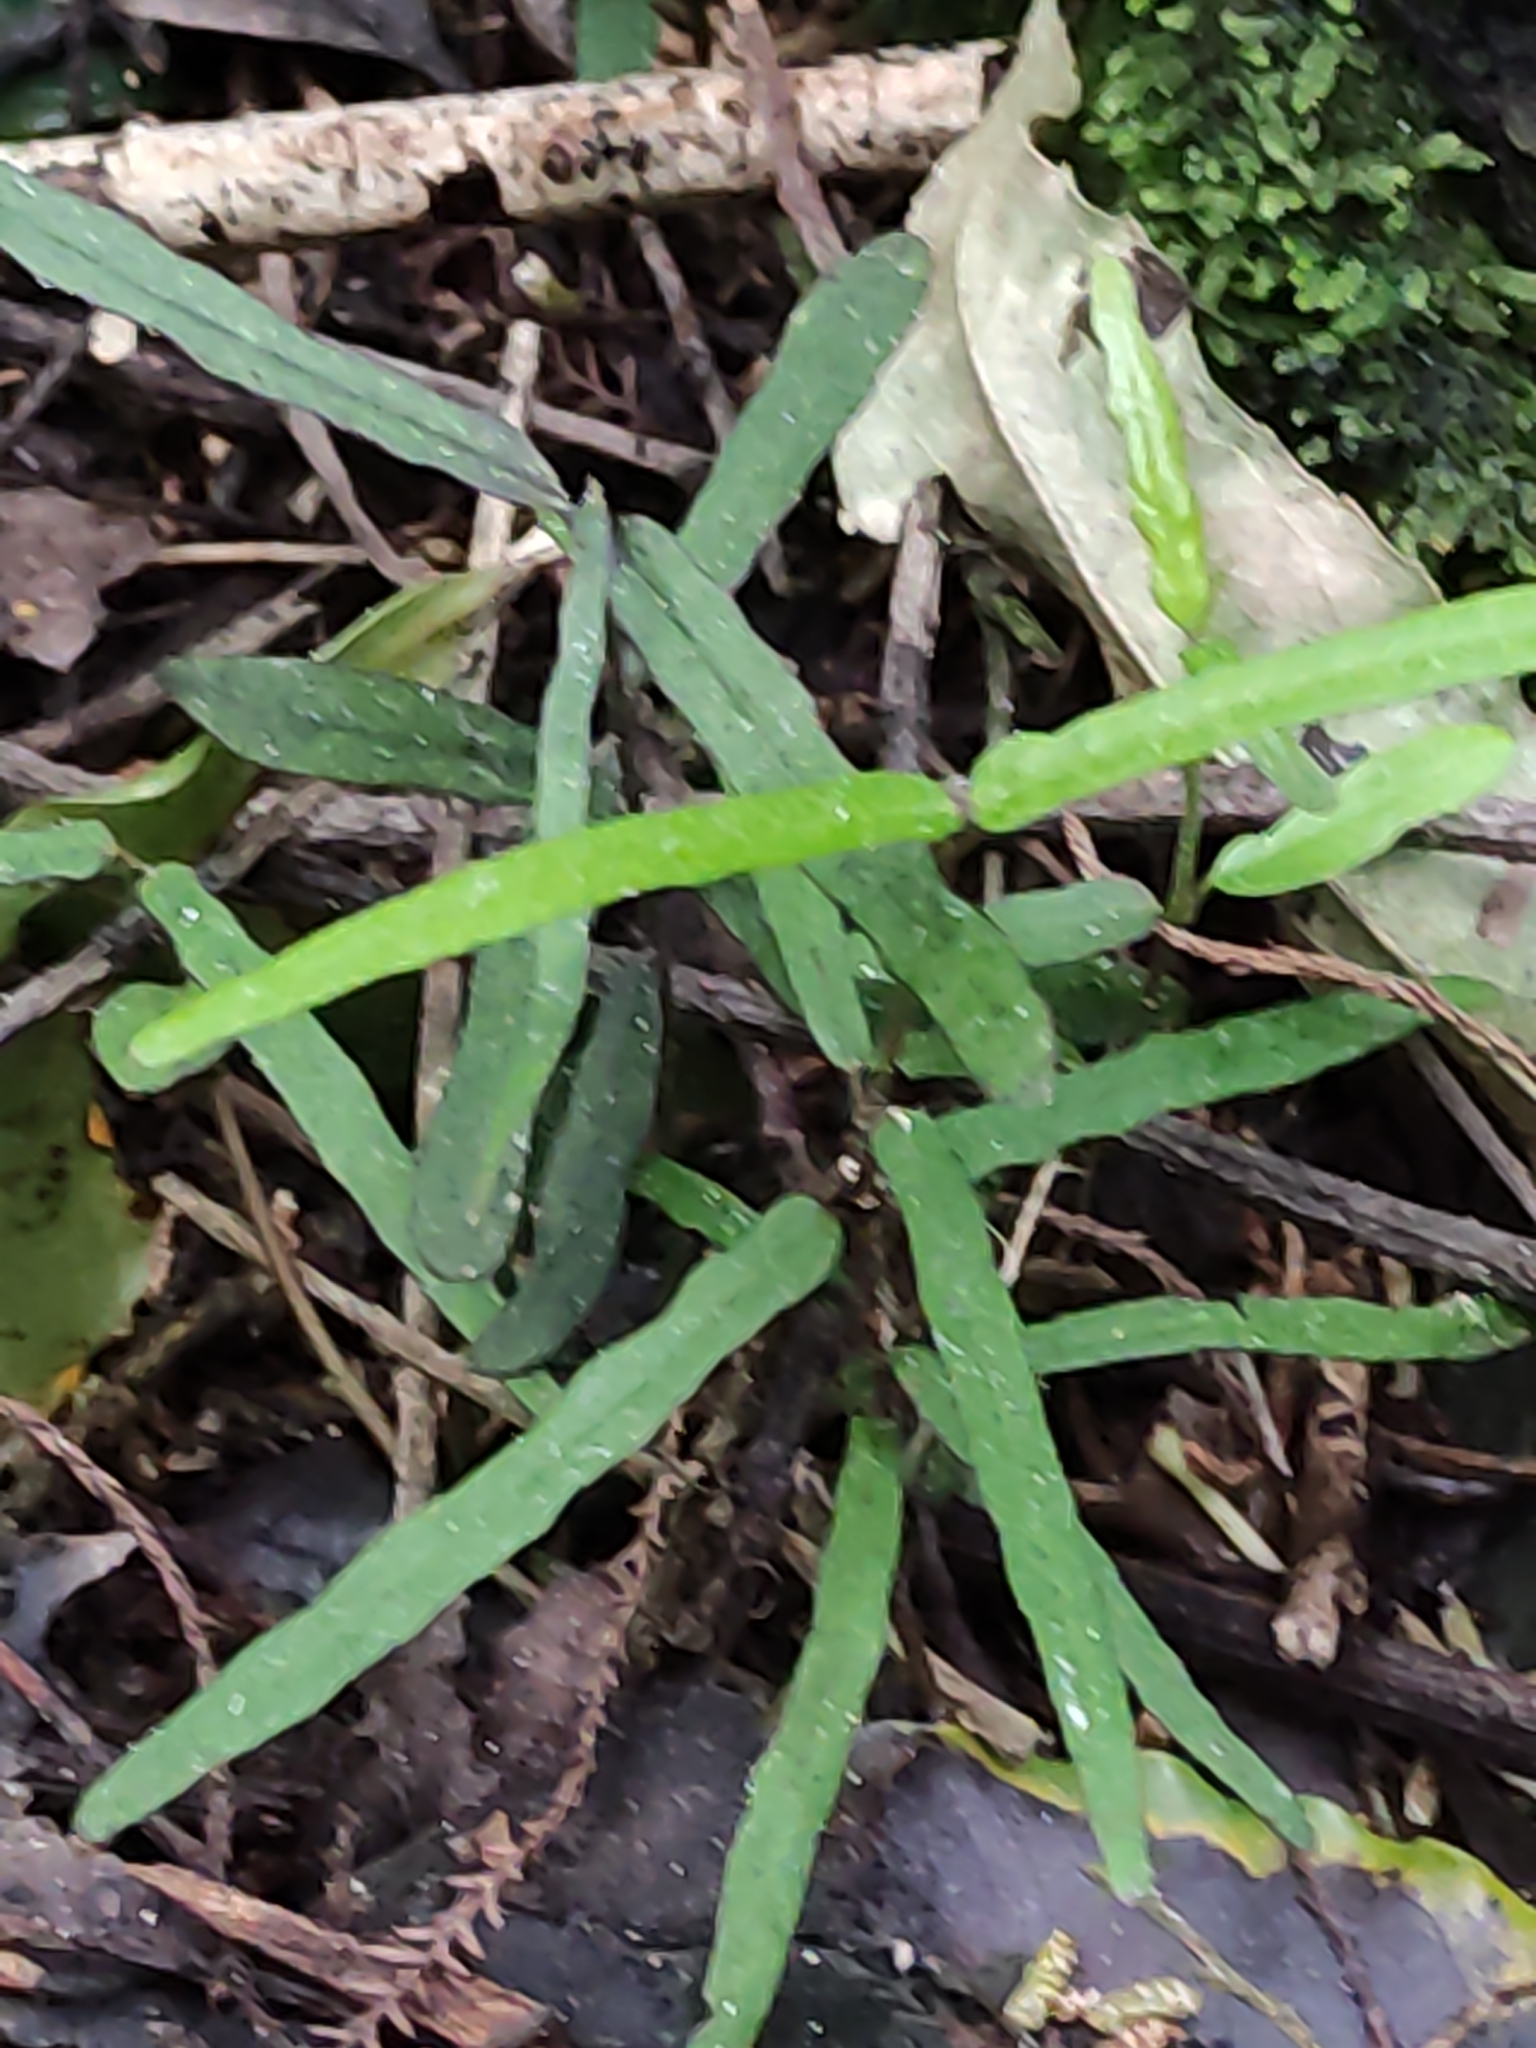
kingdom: Plantae
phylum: Tracheophyta
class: Magnoliopsida
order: Gentianales
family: Apocynaceae
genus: Parsonsia
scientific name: Parsonsia heterophylla
